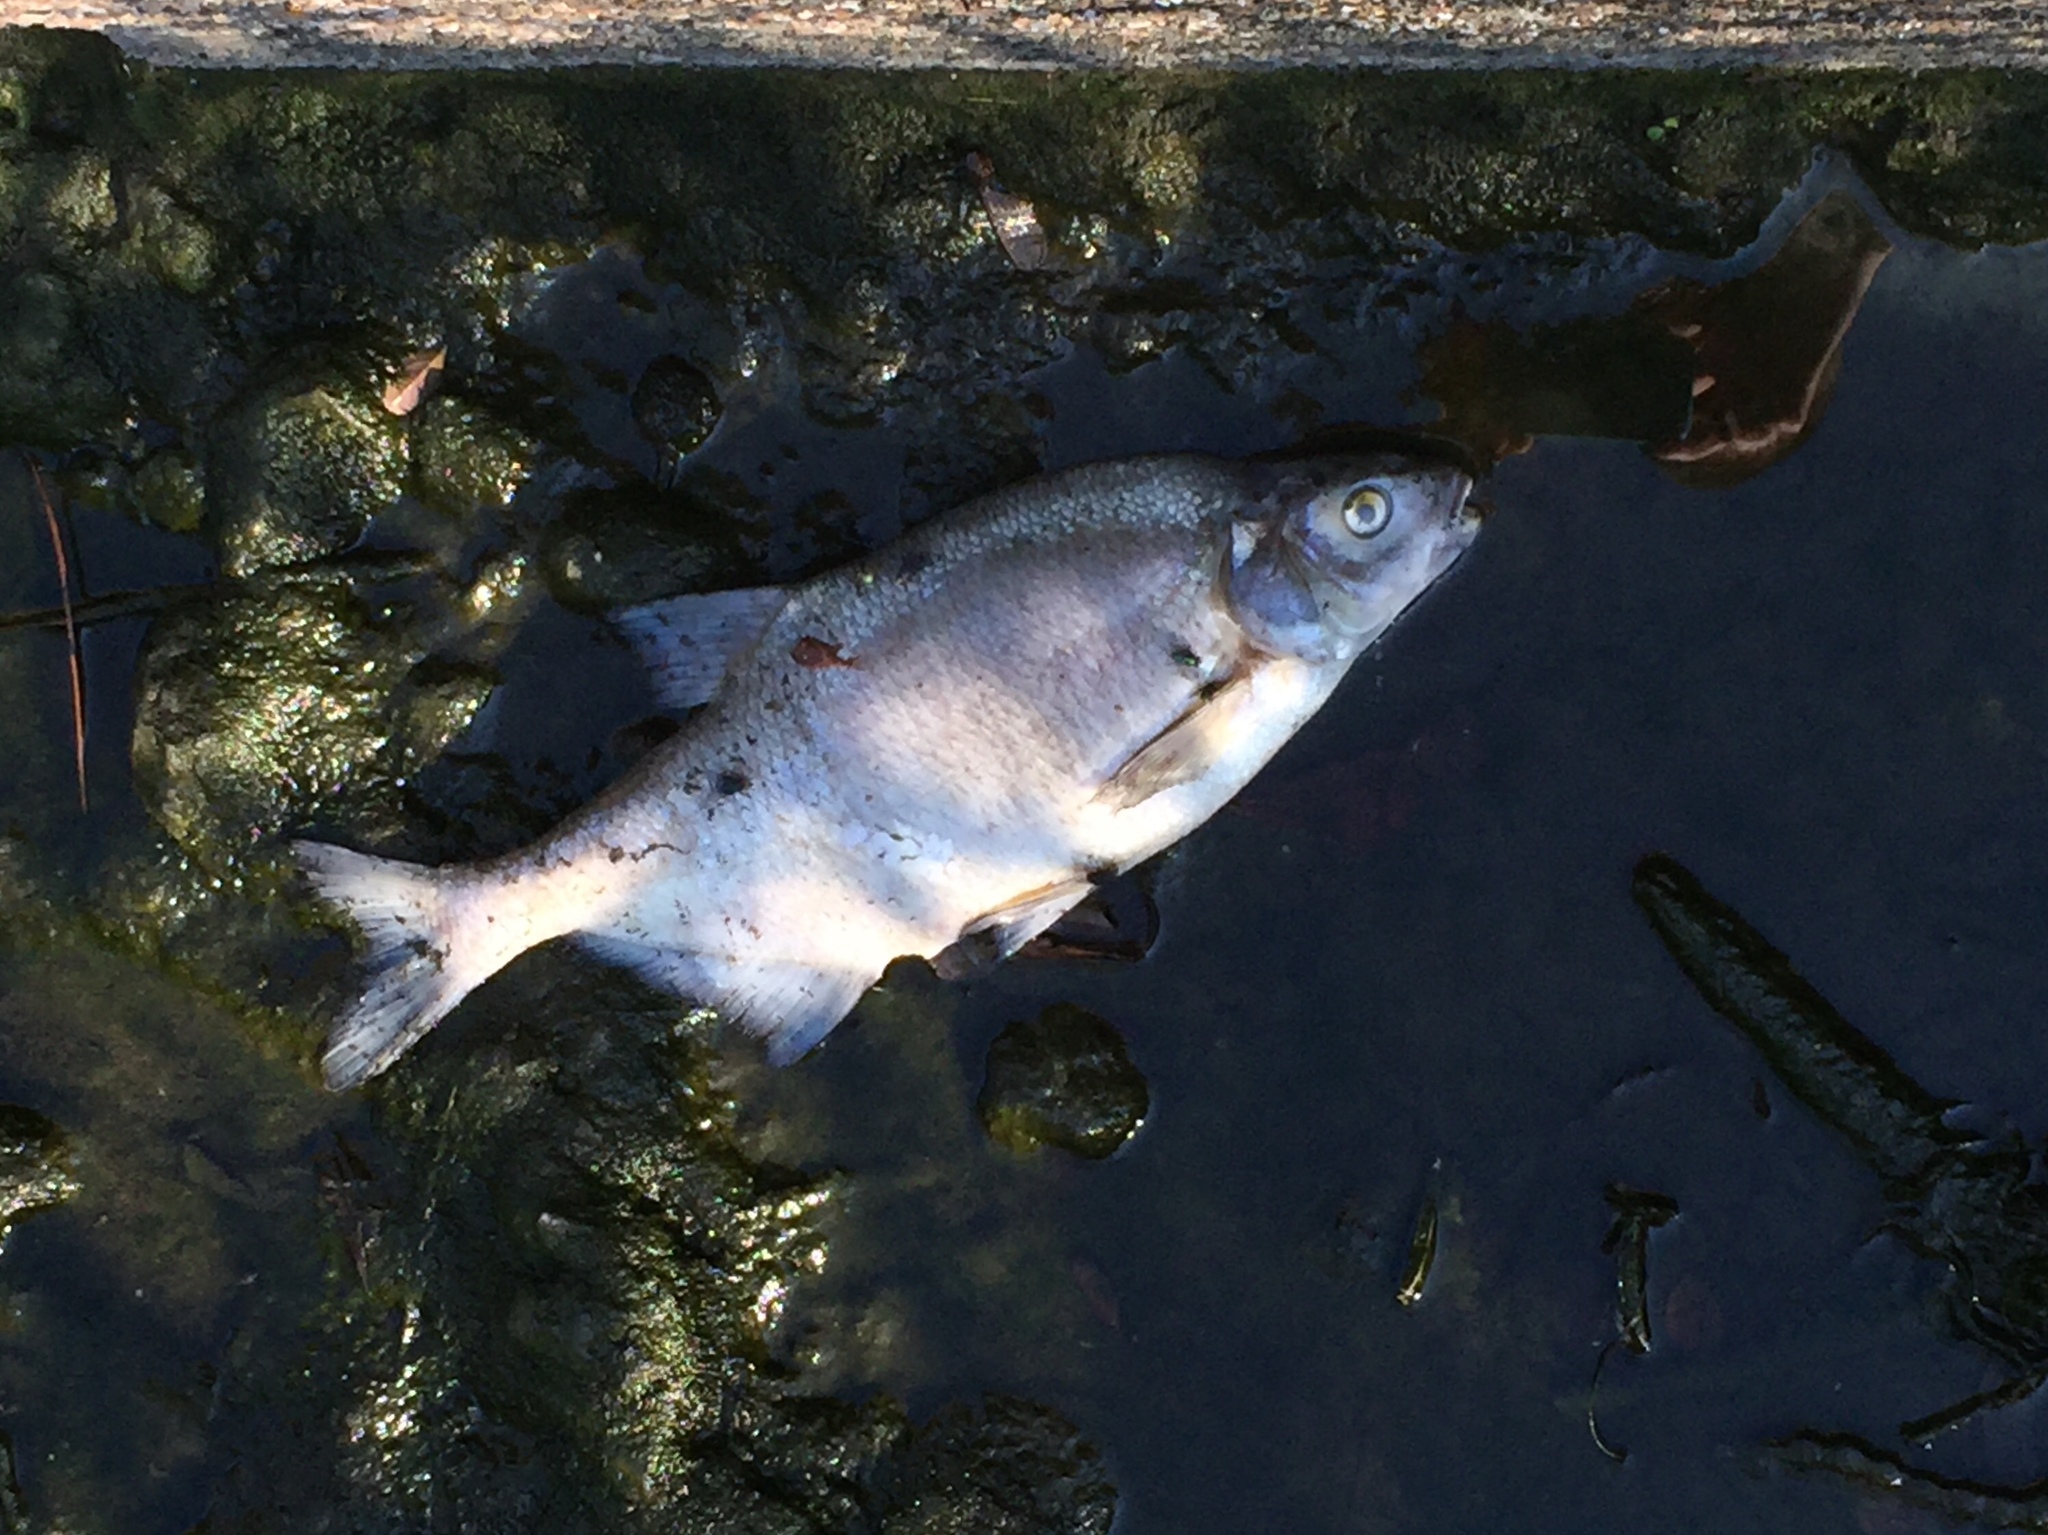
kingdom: Animalia
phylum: Chordata
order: Cypriniformes
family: Cyprinidae
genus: Abramis
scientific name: Abramis brama
